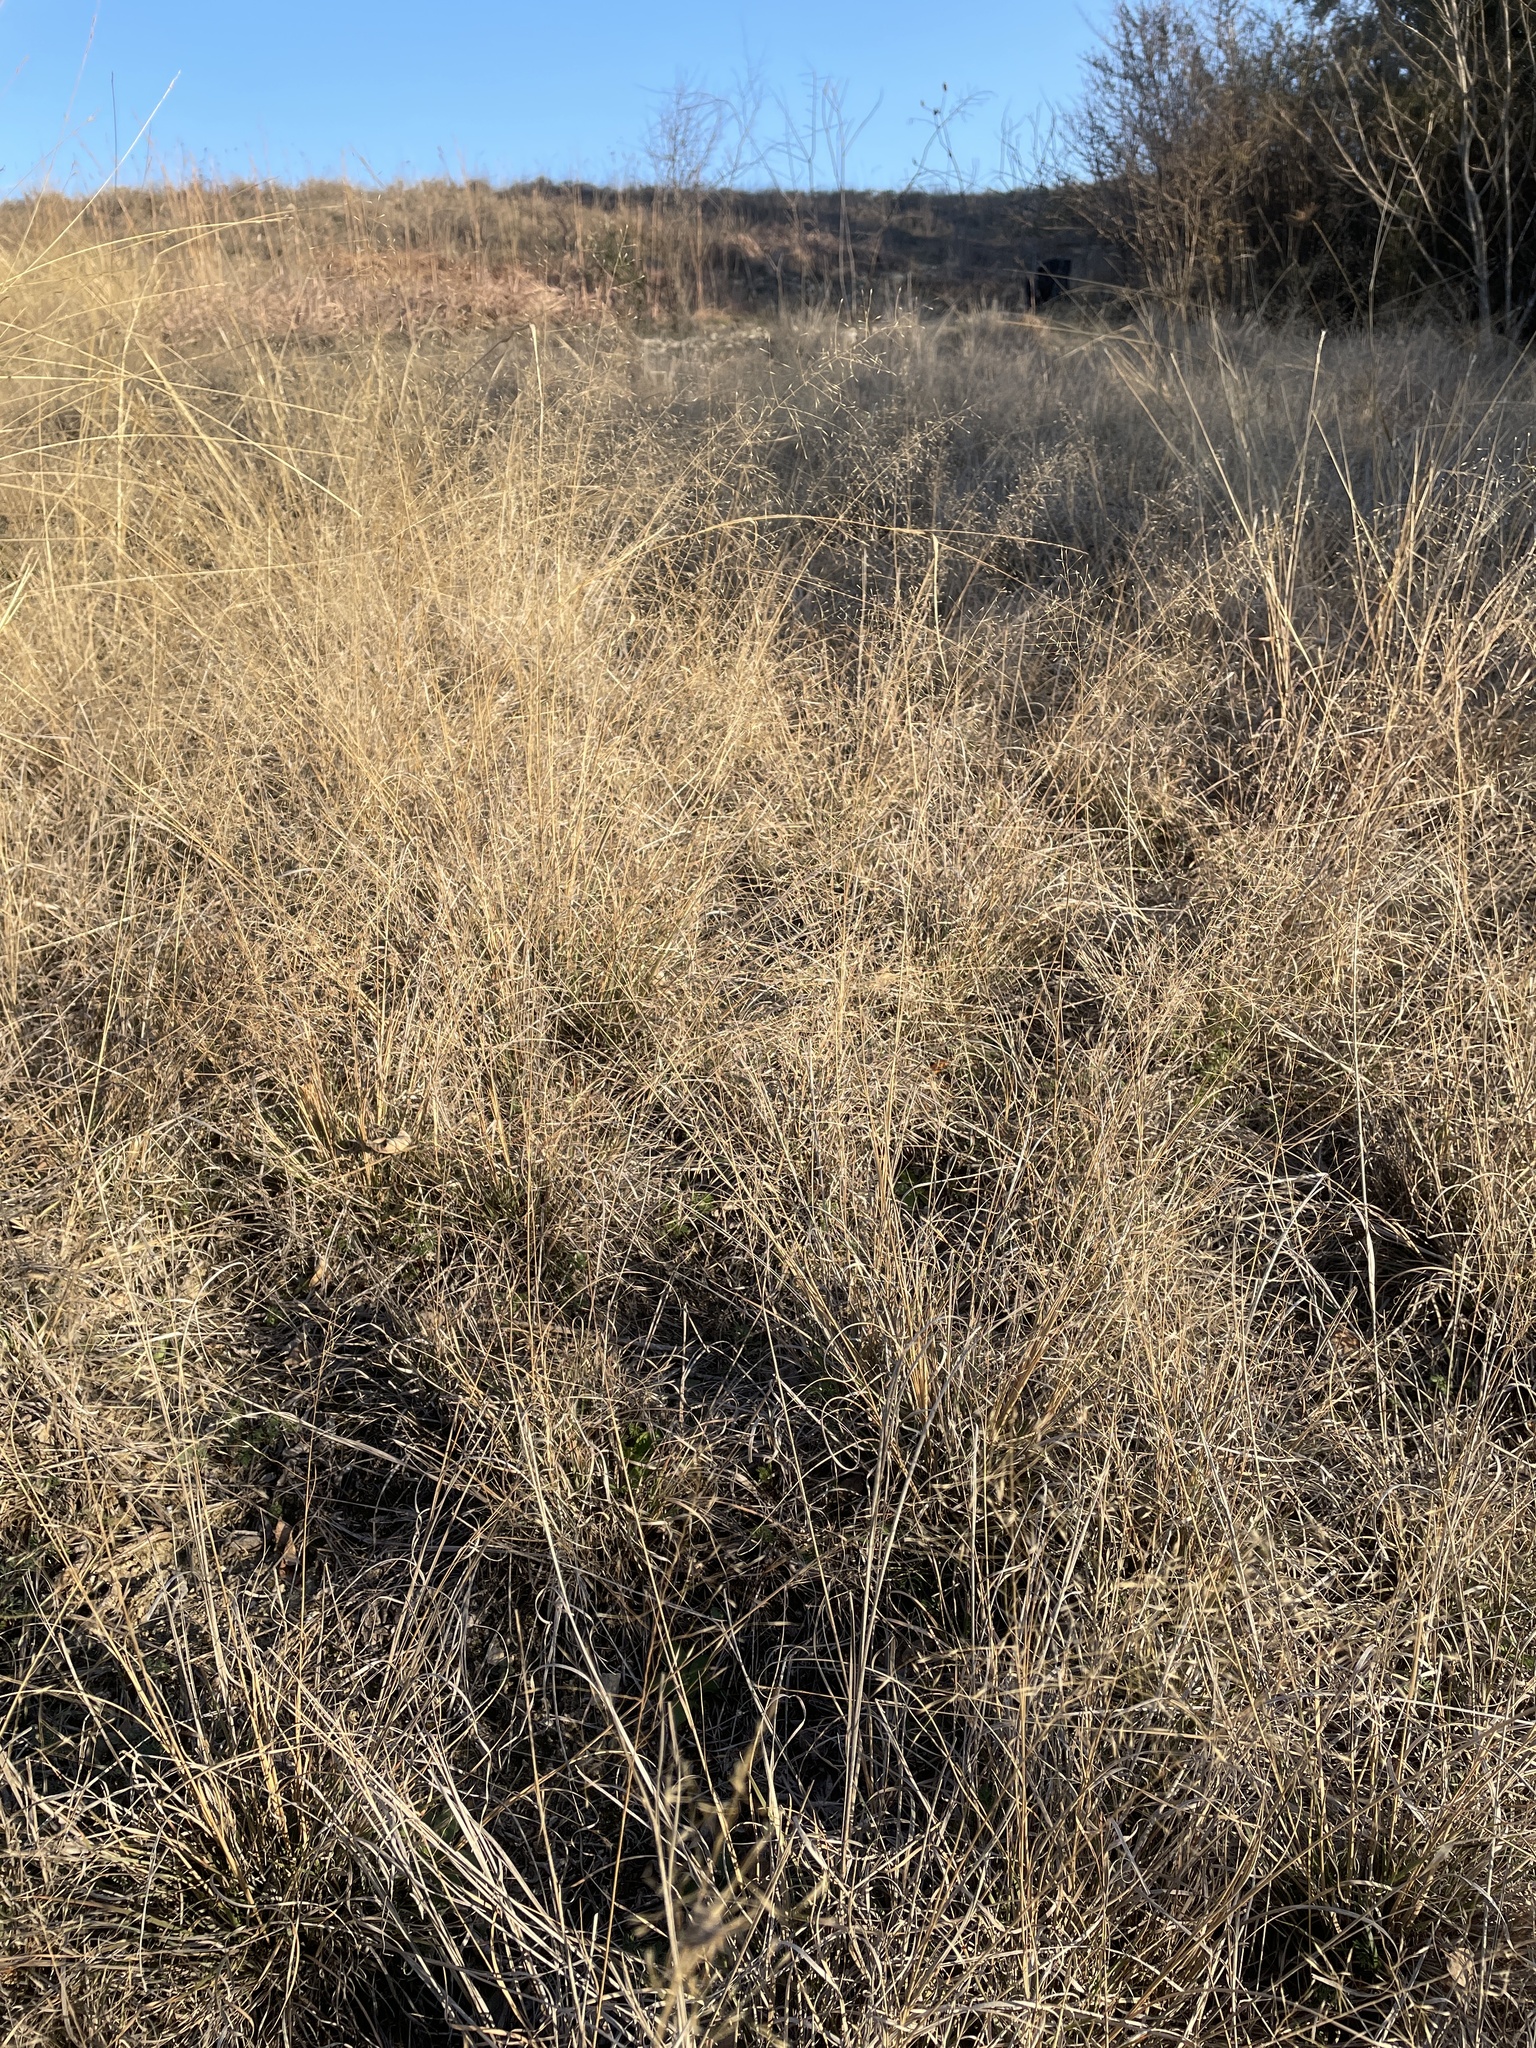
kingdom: Plantae
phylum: Tracheophyta
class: Liliopsida
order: Poales
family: Poaceae
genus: Muhlenbergia
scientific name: Muhlenbergia reverchonii
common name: Seep muhly
